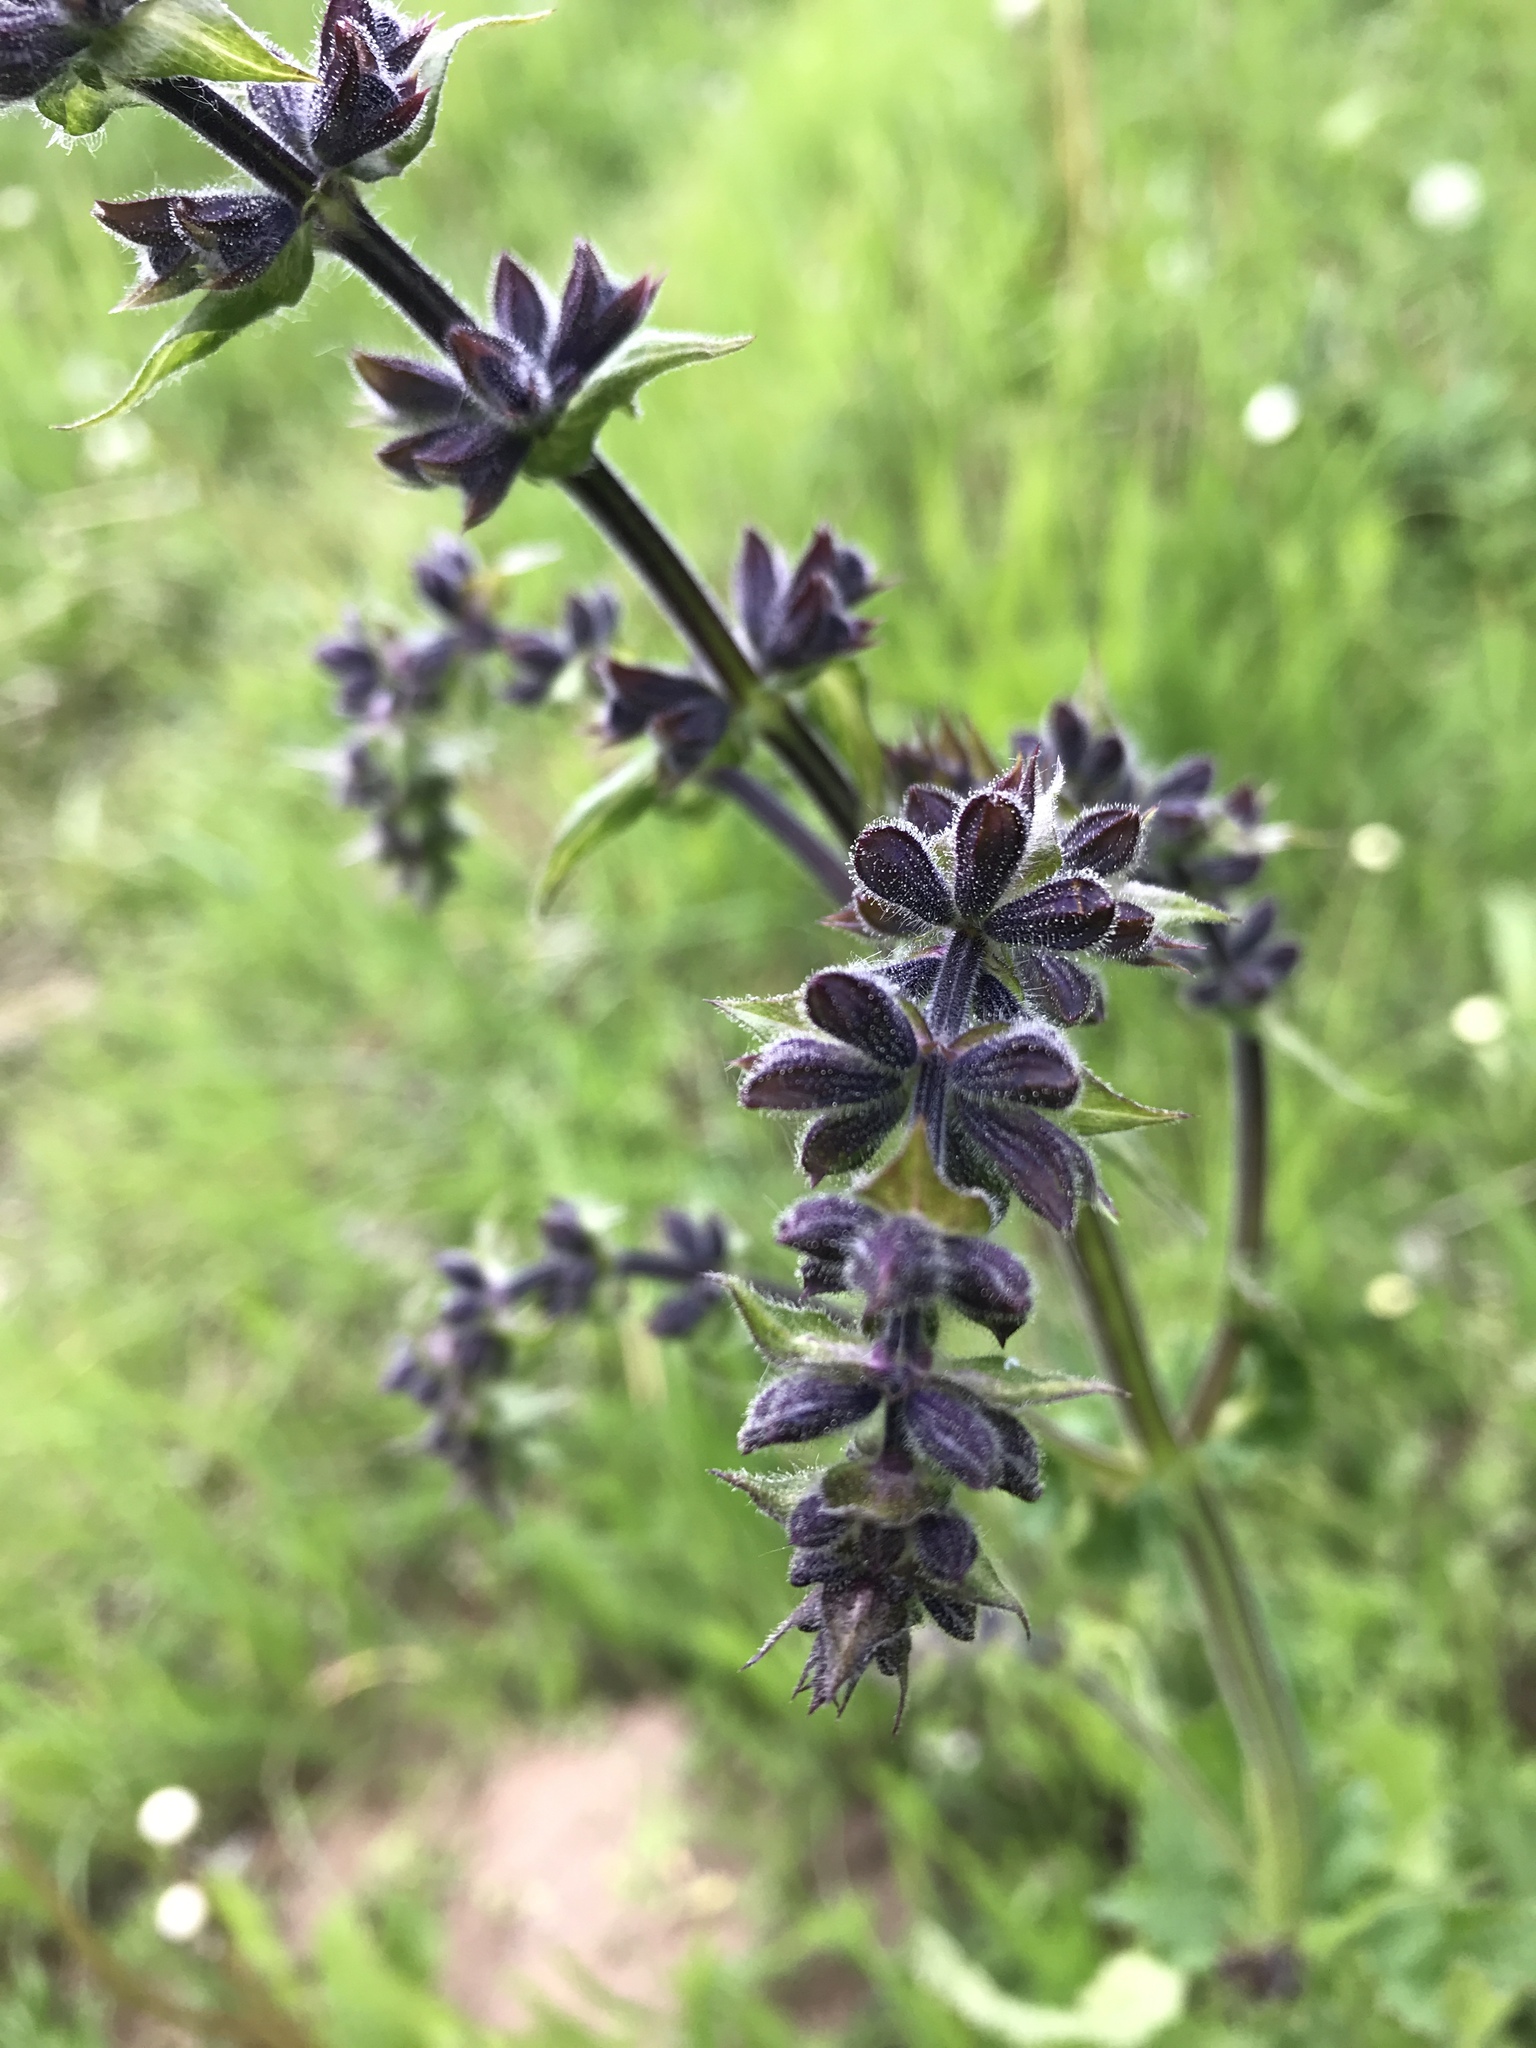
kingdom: Plantae
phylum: Tracheophyta
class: Magnoliopsida
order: Lamiales
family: Lamiaceae
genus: Salvia
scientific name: Salvia pratensis
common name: Meadow sage
